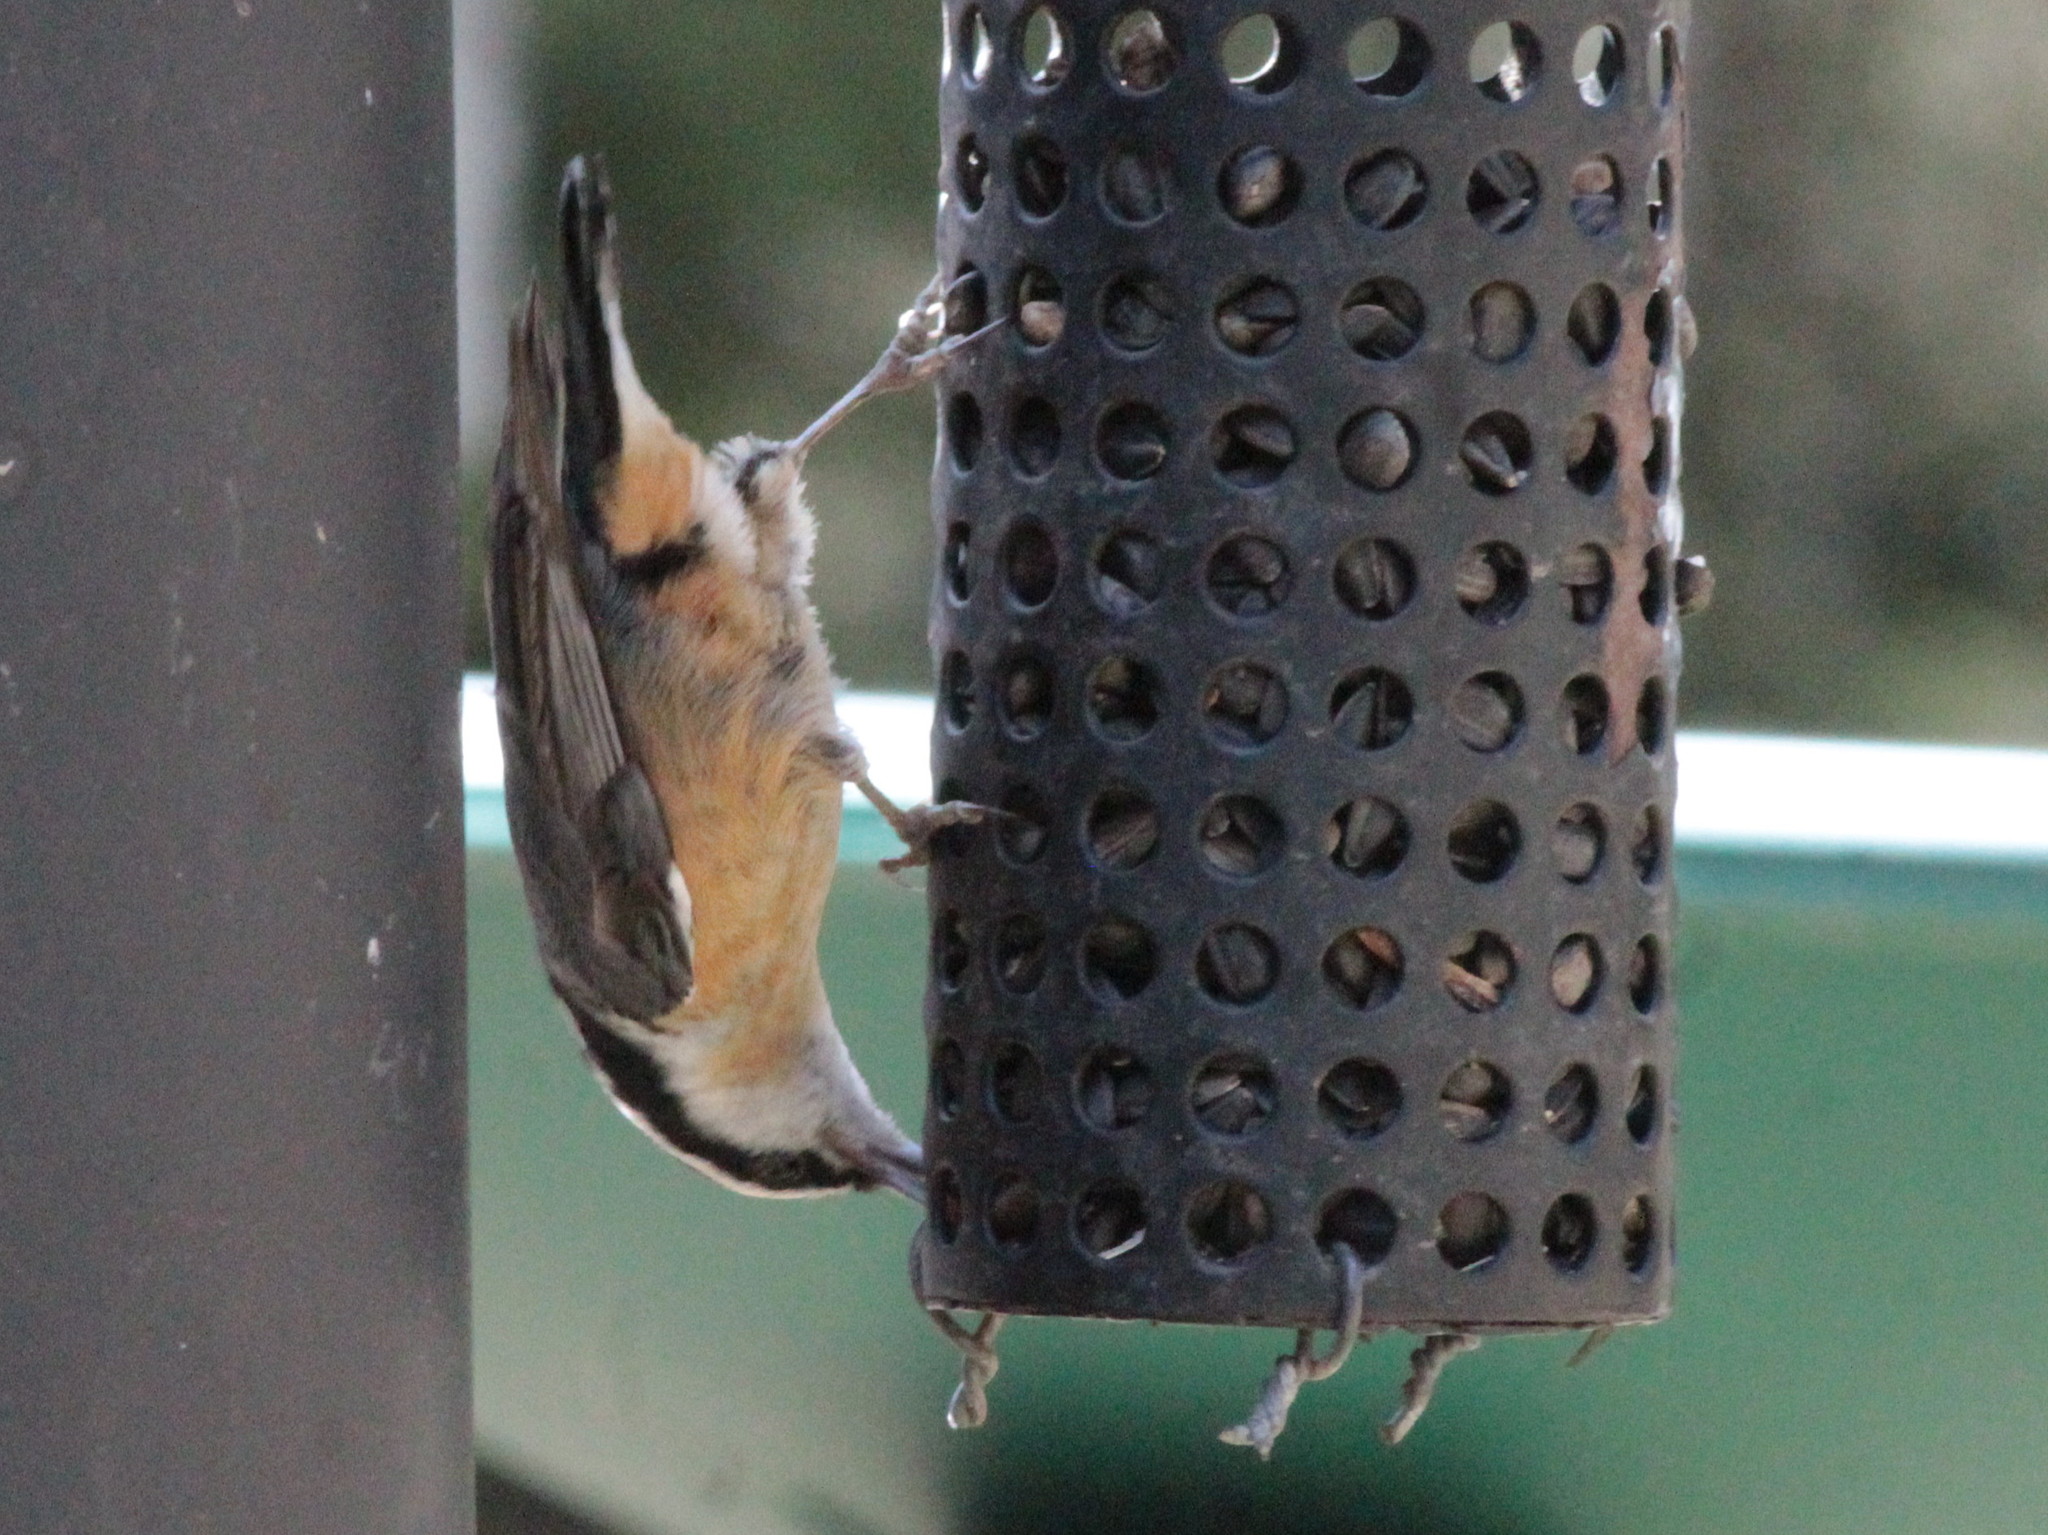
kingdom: Animalia
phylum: Chordata
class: Aves
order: Passeriformes
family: Sittidae
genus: Sitta
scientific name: Sitta canadensis
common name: Red-breasted nuthatch
